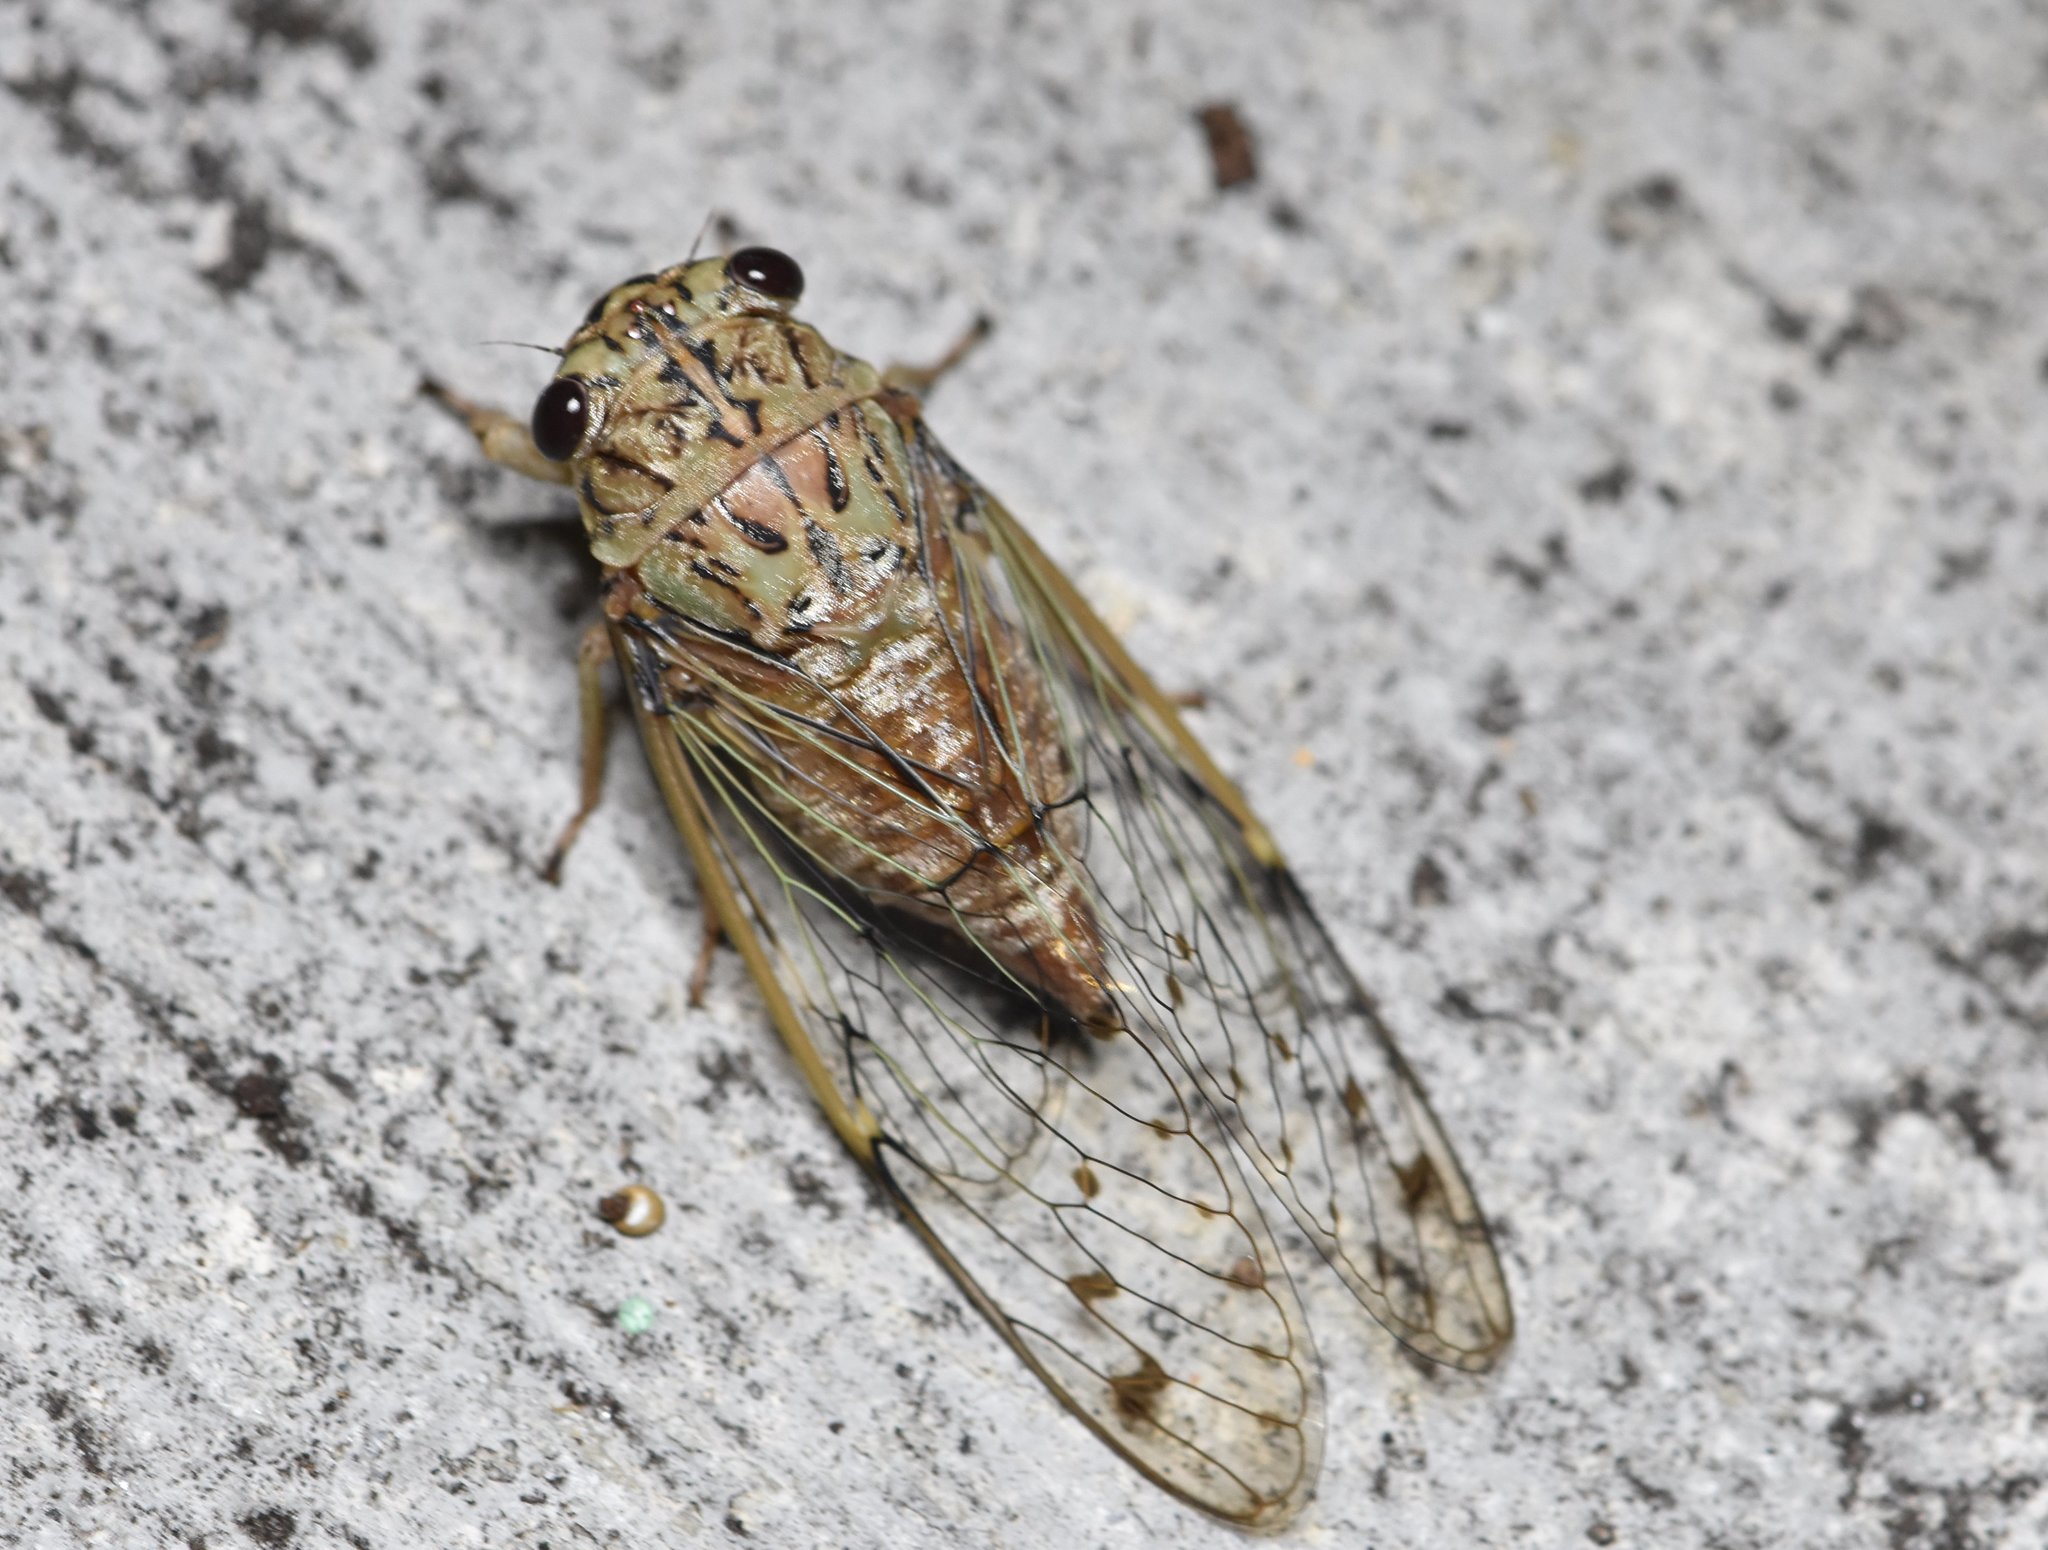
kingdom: Animalia
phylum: Arthropoda
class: Insecta
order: Hemiptera
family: Cicadidae
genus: Neocicada
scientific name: Neocicada hieroglyphica
